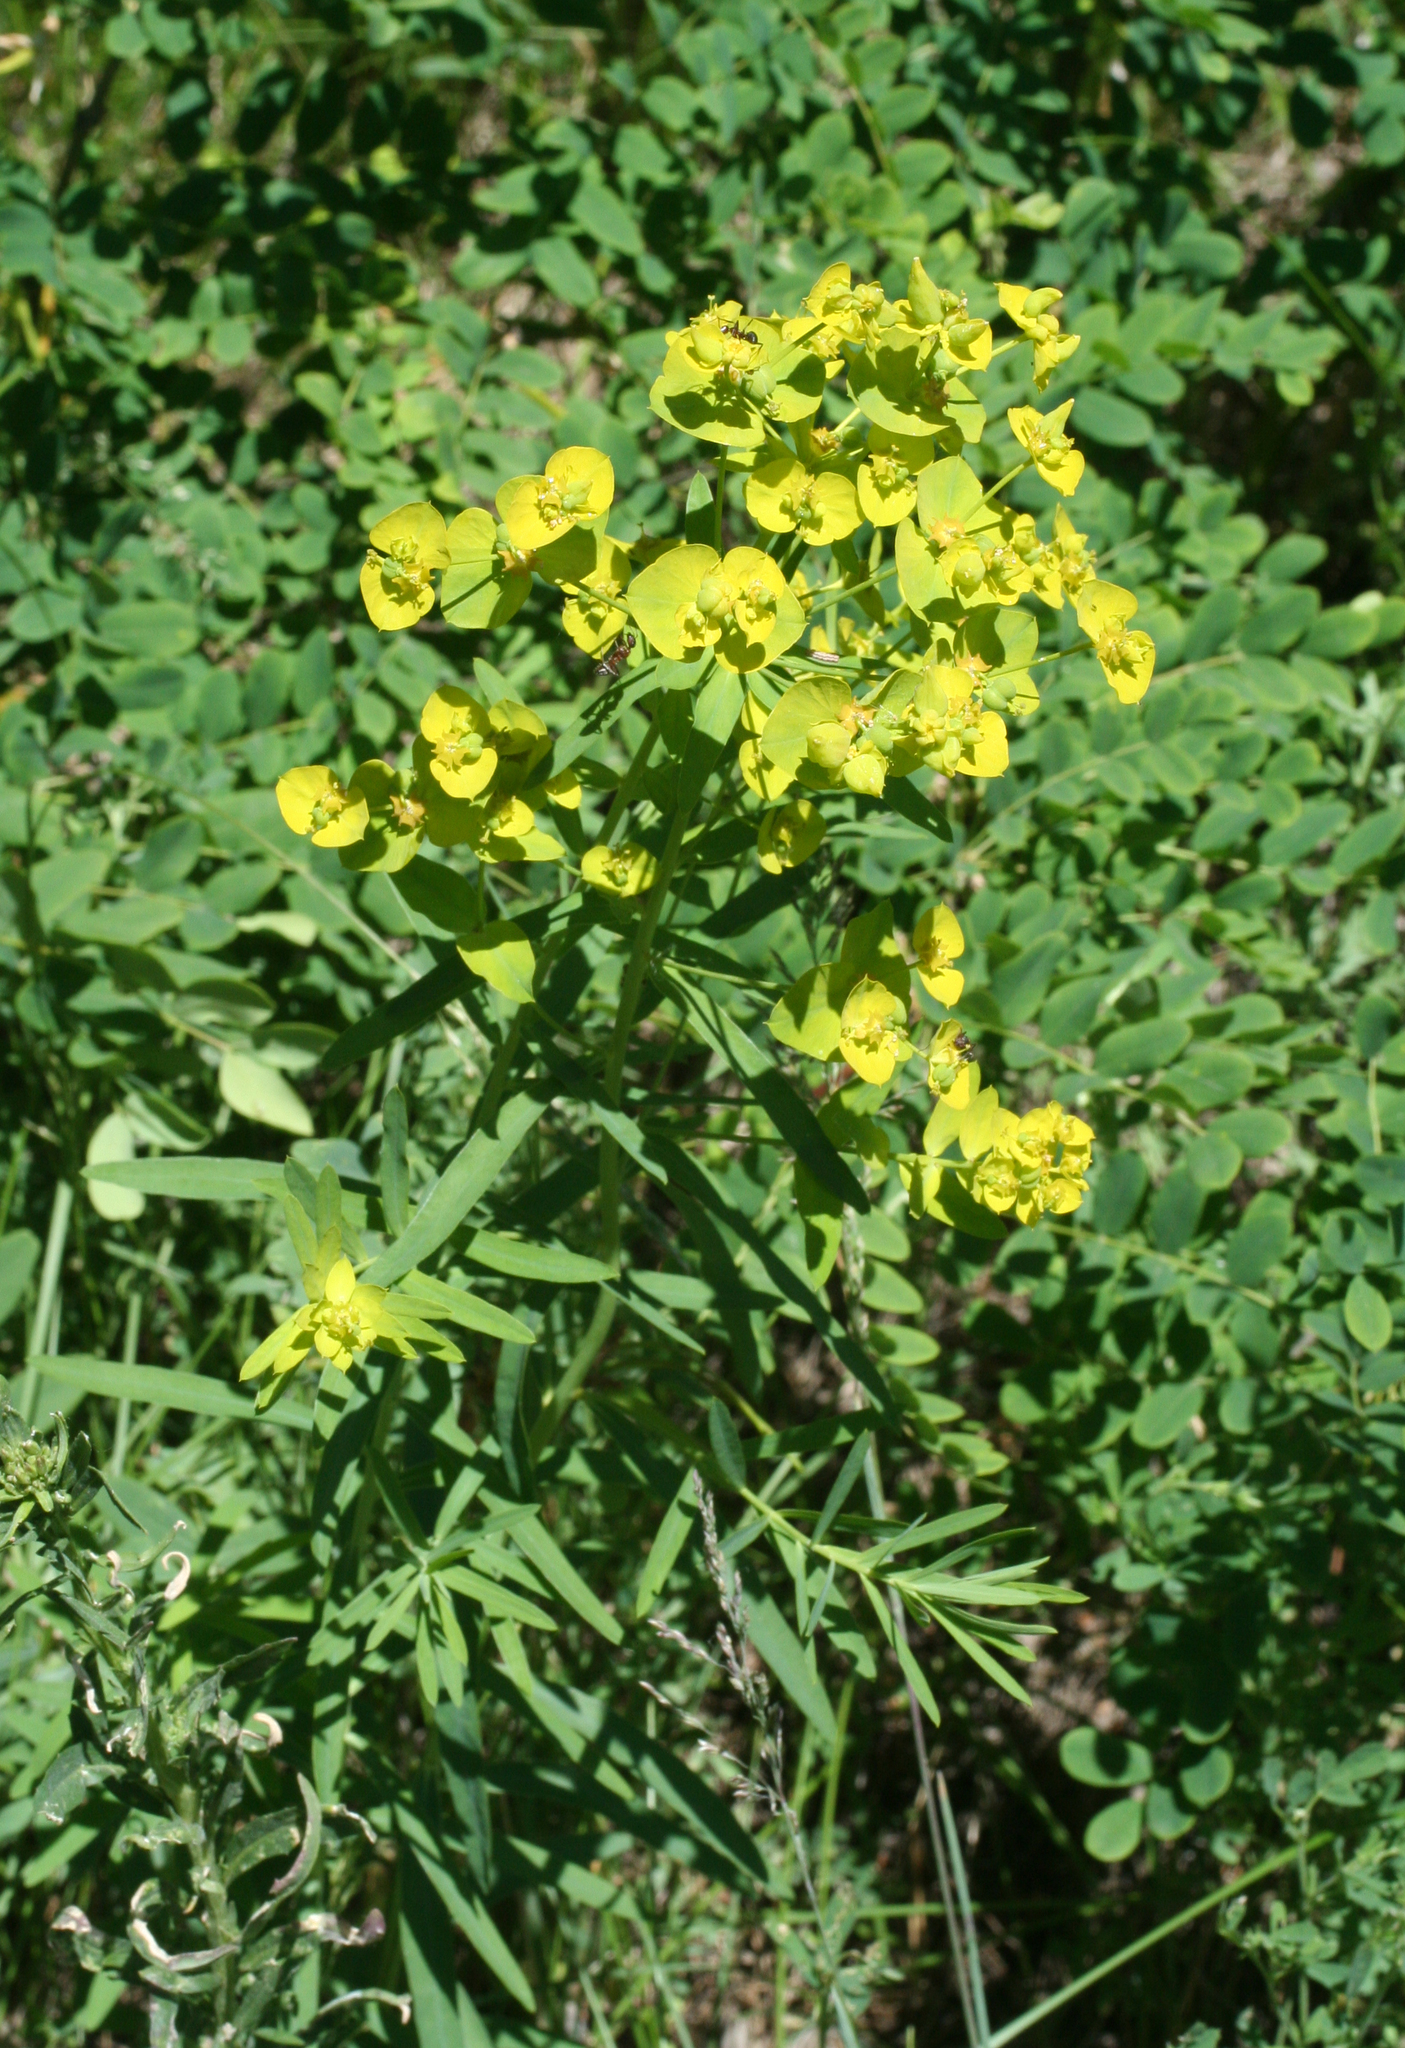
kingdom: Plantae
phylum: Tracheophyta
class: Magnoliopsida
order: Malpighiales
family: Euphorbiaceae
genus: Euphorbia
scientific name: Euphorbia virgata
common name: Leafy spurge
